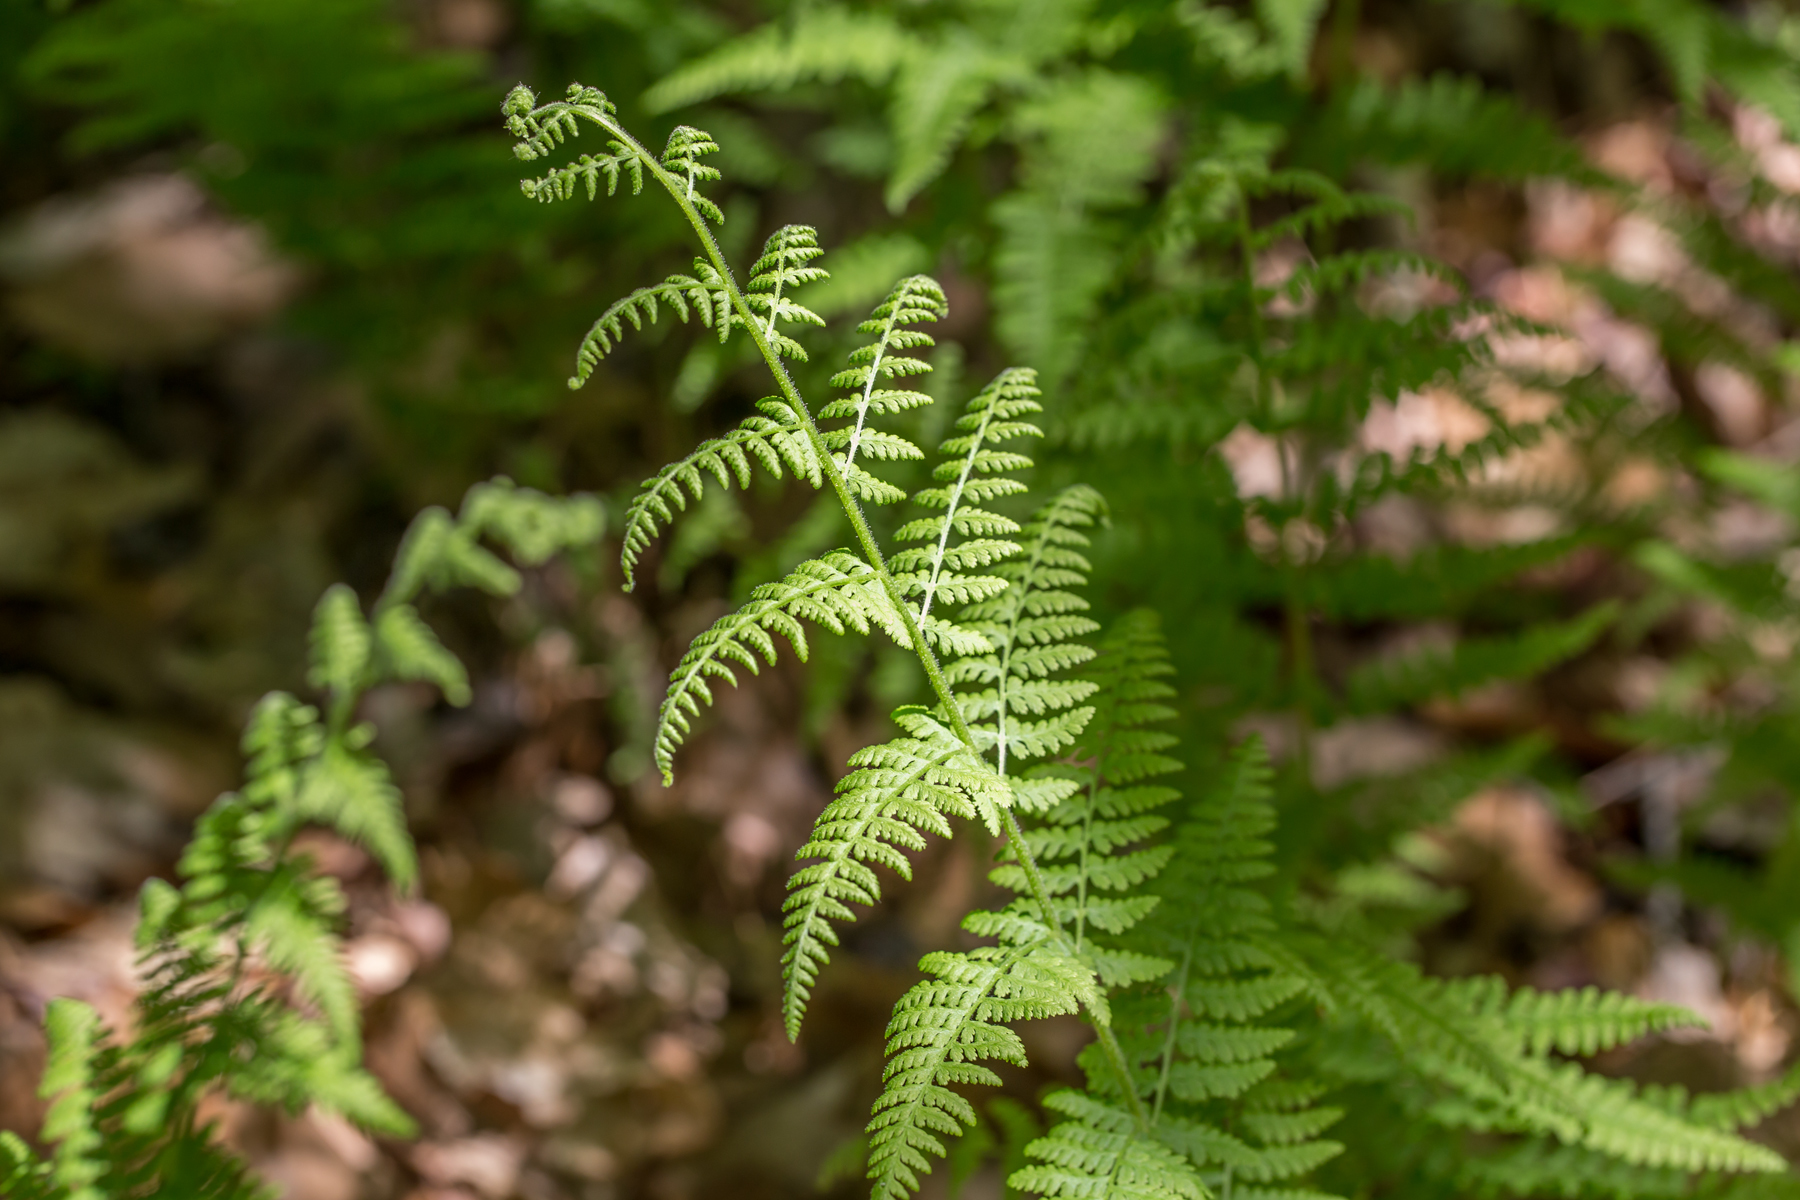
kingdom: Plantae
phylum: Tracheophyta
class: Polypodiopsida
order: Polypodiales
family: Dennstaedtiaceae
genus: Sitobolium
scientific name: Sitobolium punctilobum
